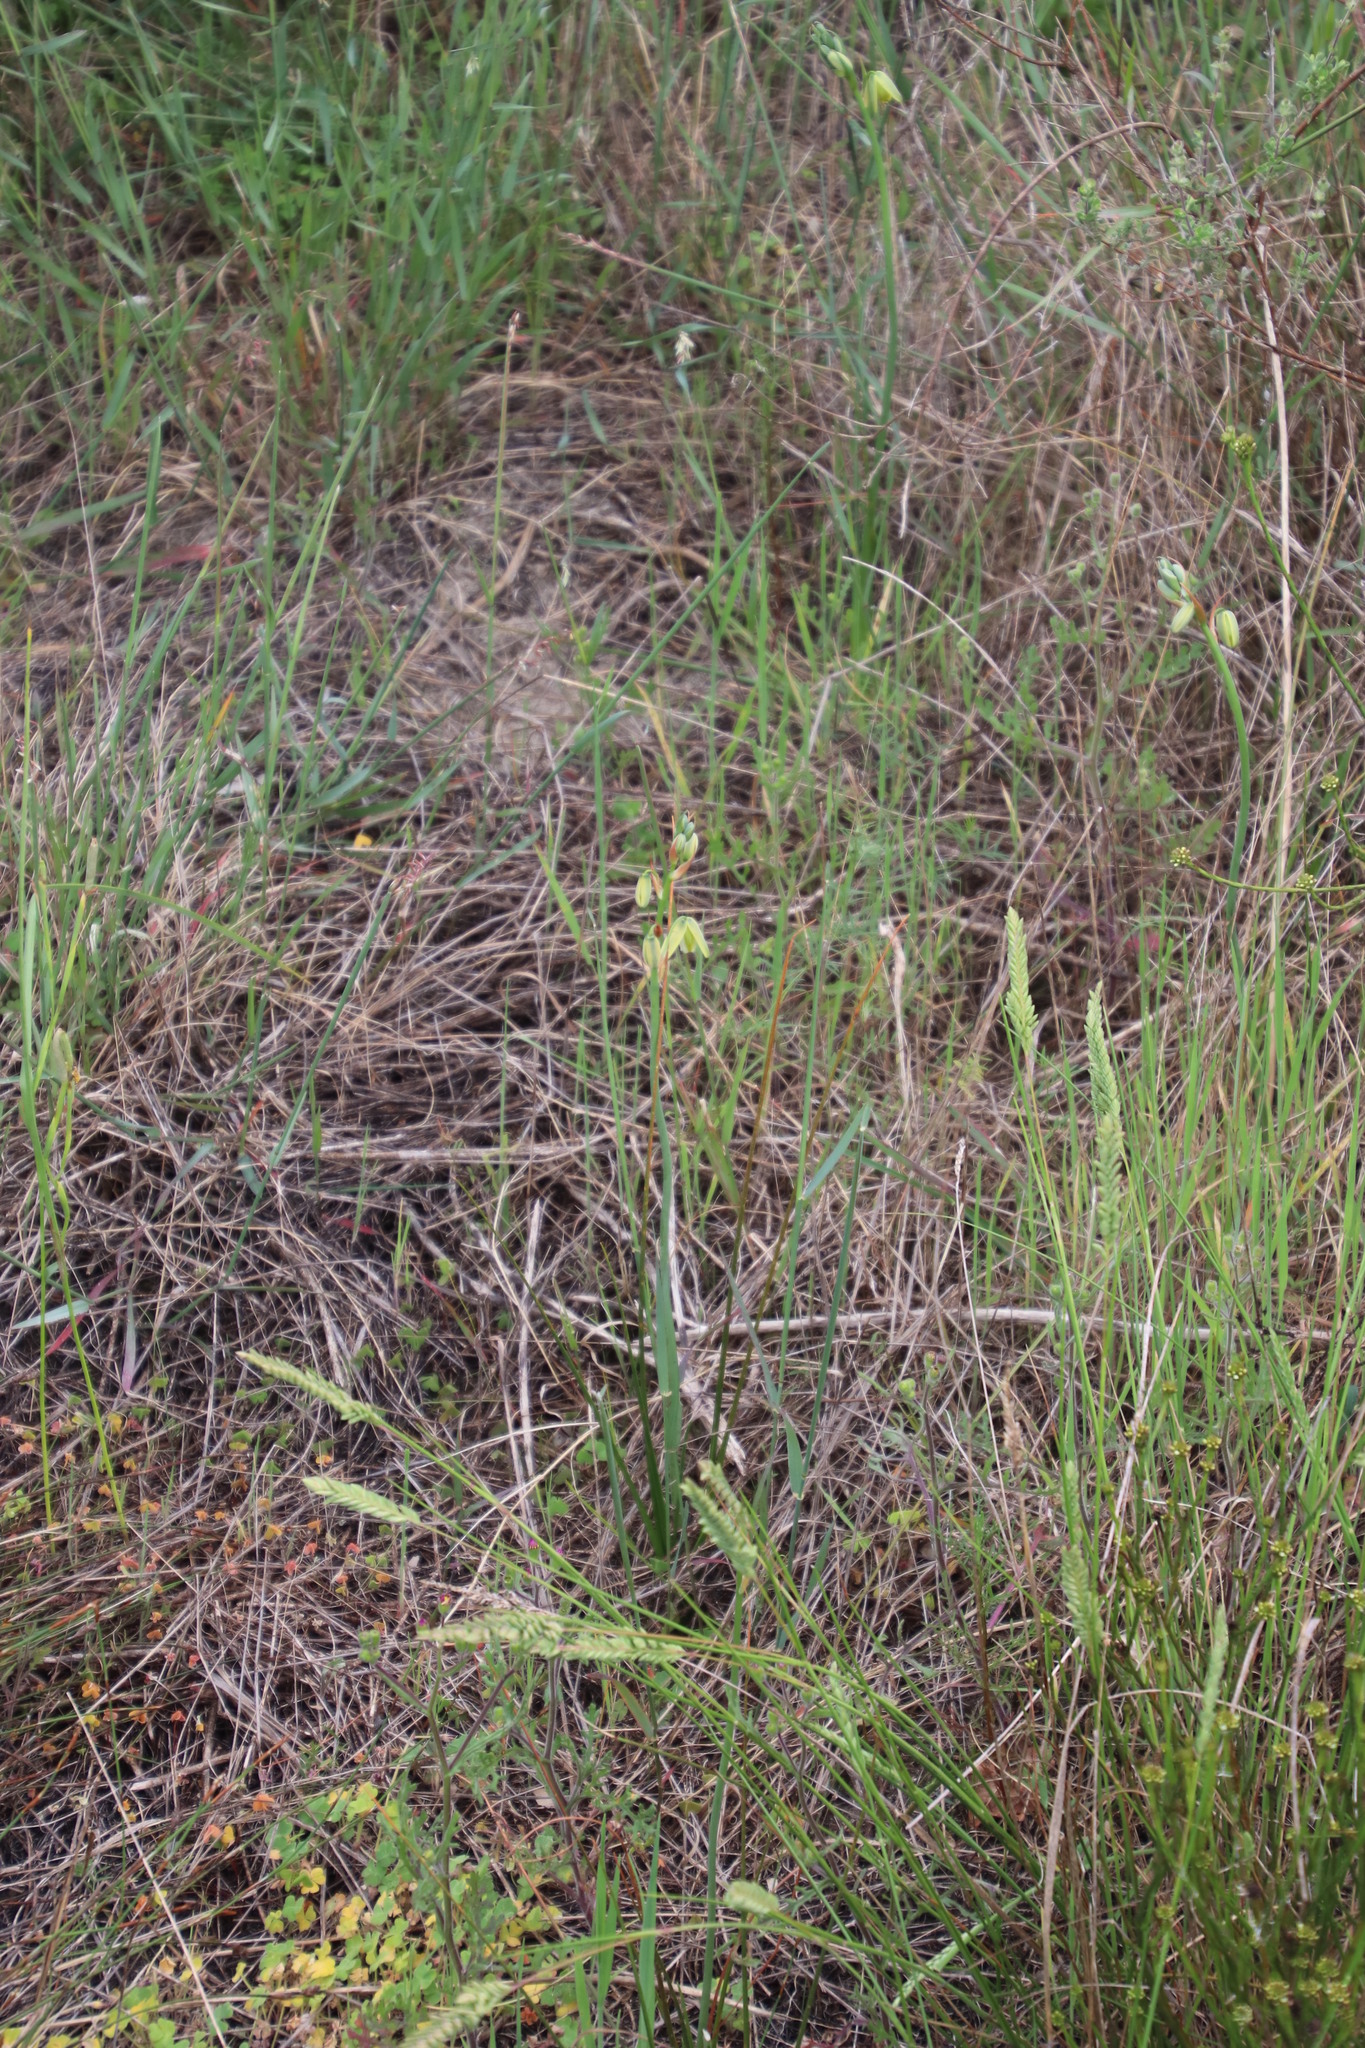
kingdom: Plantae
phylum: Tracheophyta
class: Liliopsida
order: Asparagales
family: Asparagaceae
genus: Albuca
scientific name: Albuca cooperi
